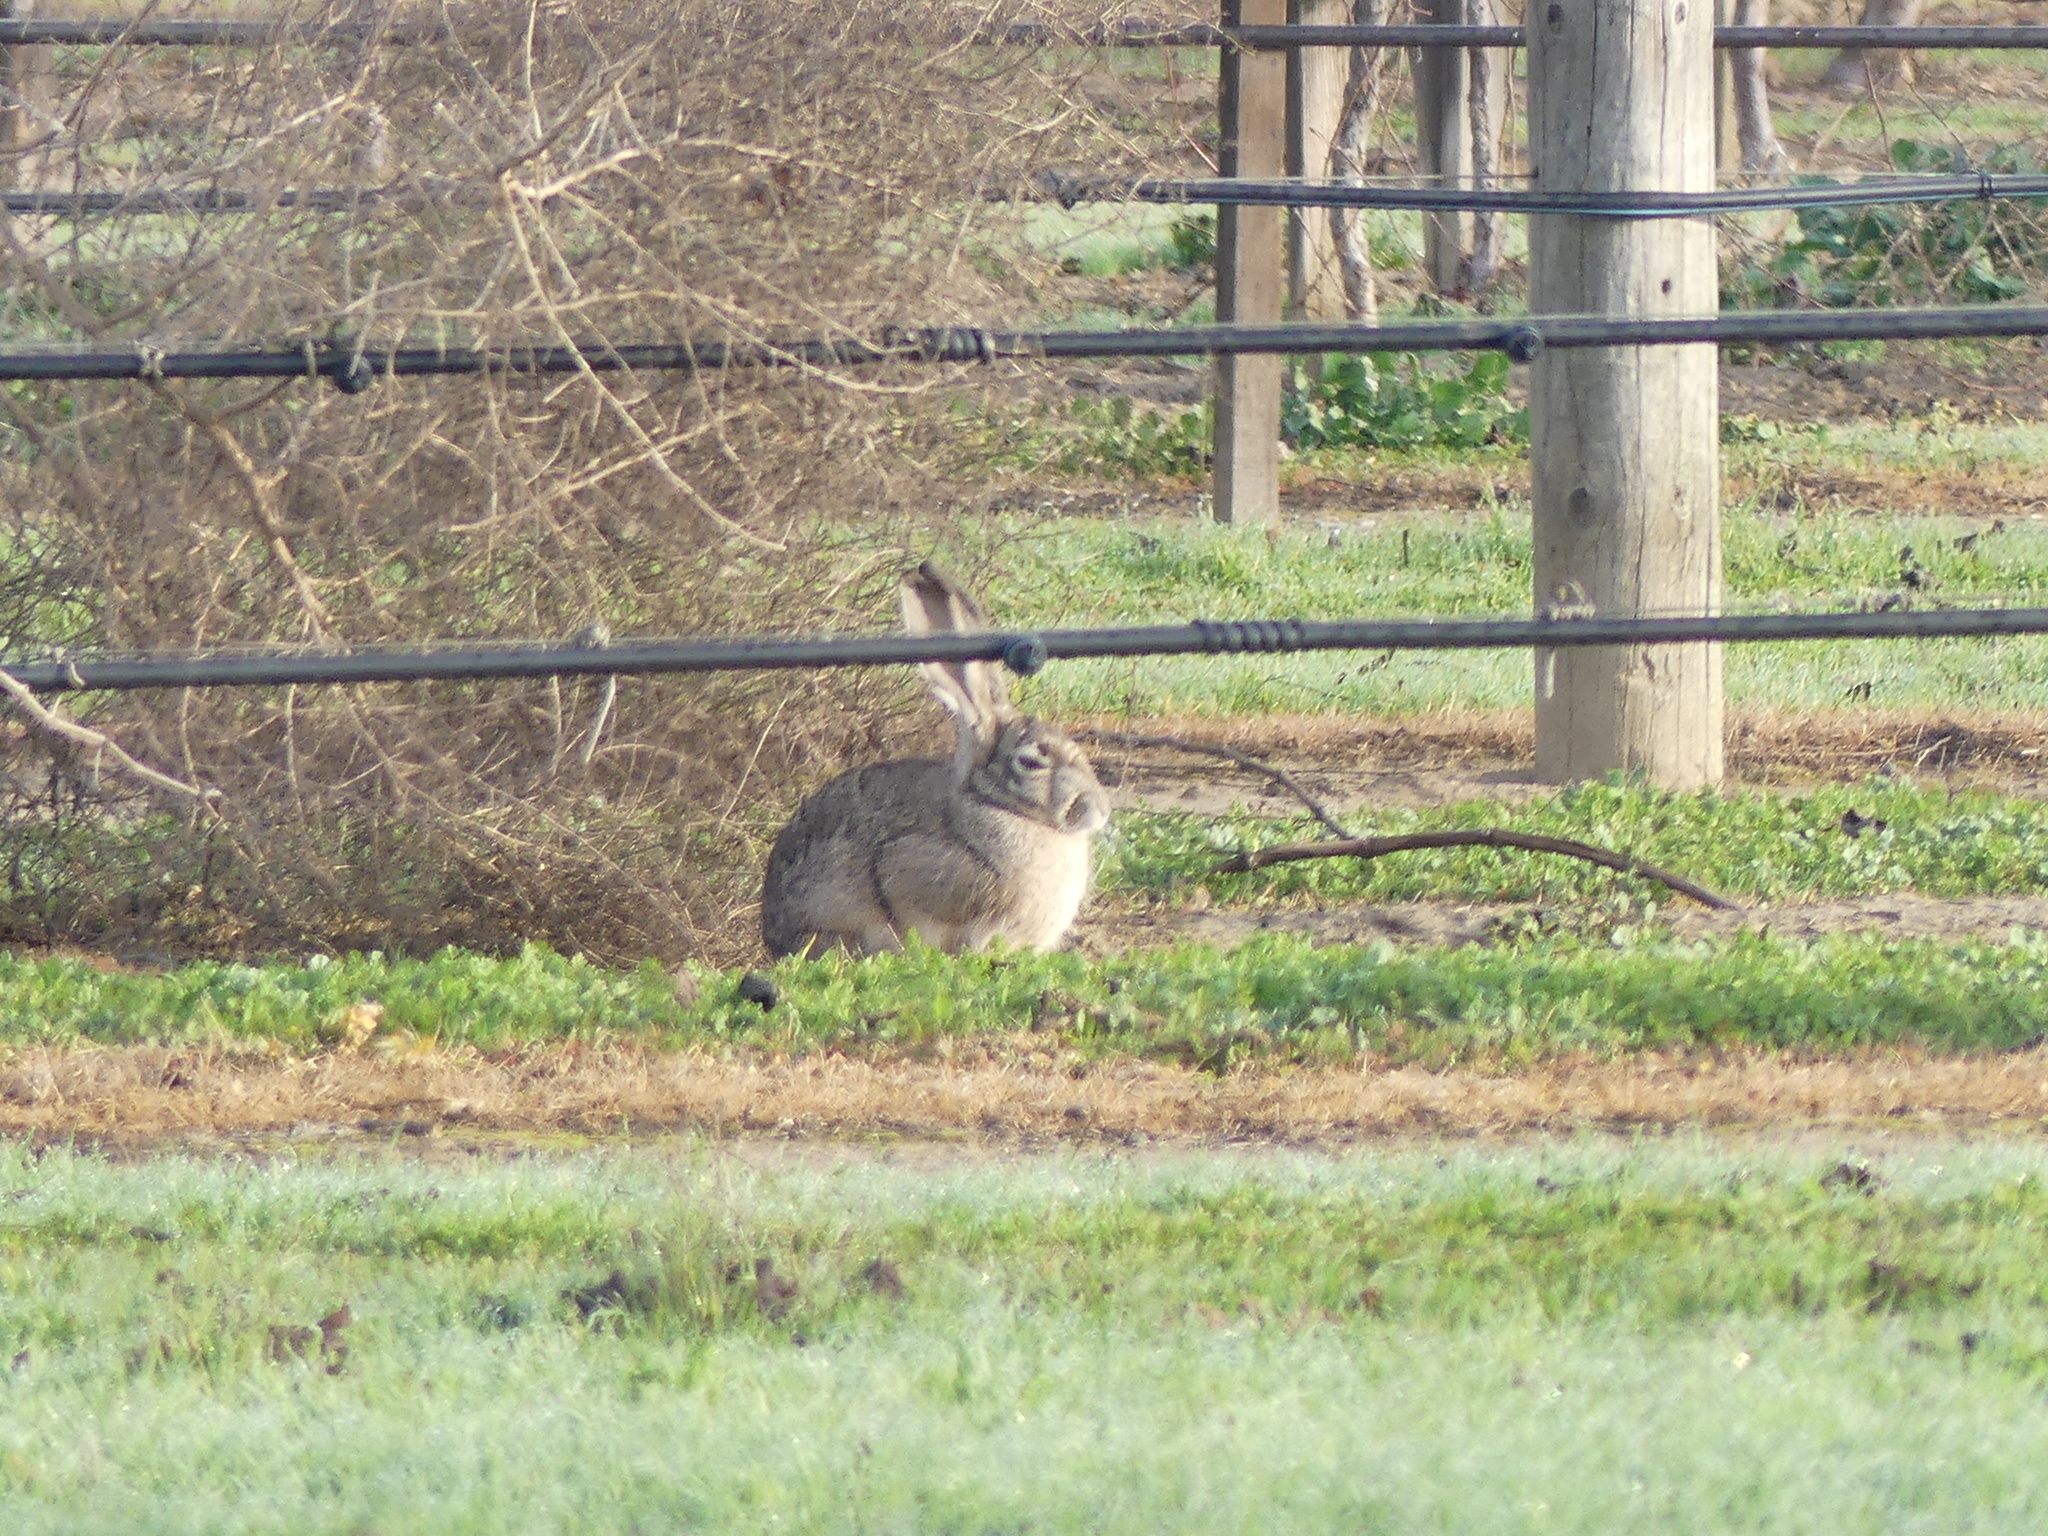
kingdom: Animalia
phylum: Chordata
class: Mammalia
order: Lagomorpha
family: Leporidae
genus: Lepus
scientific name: Lepus californicus
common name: Black-tailed jackrabbit
